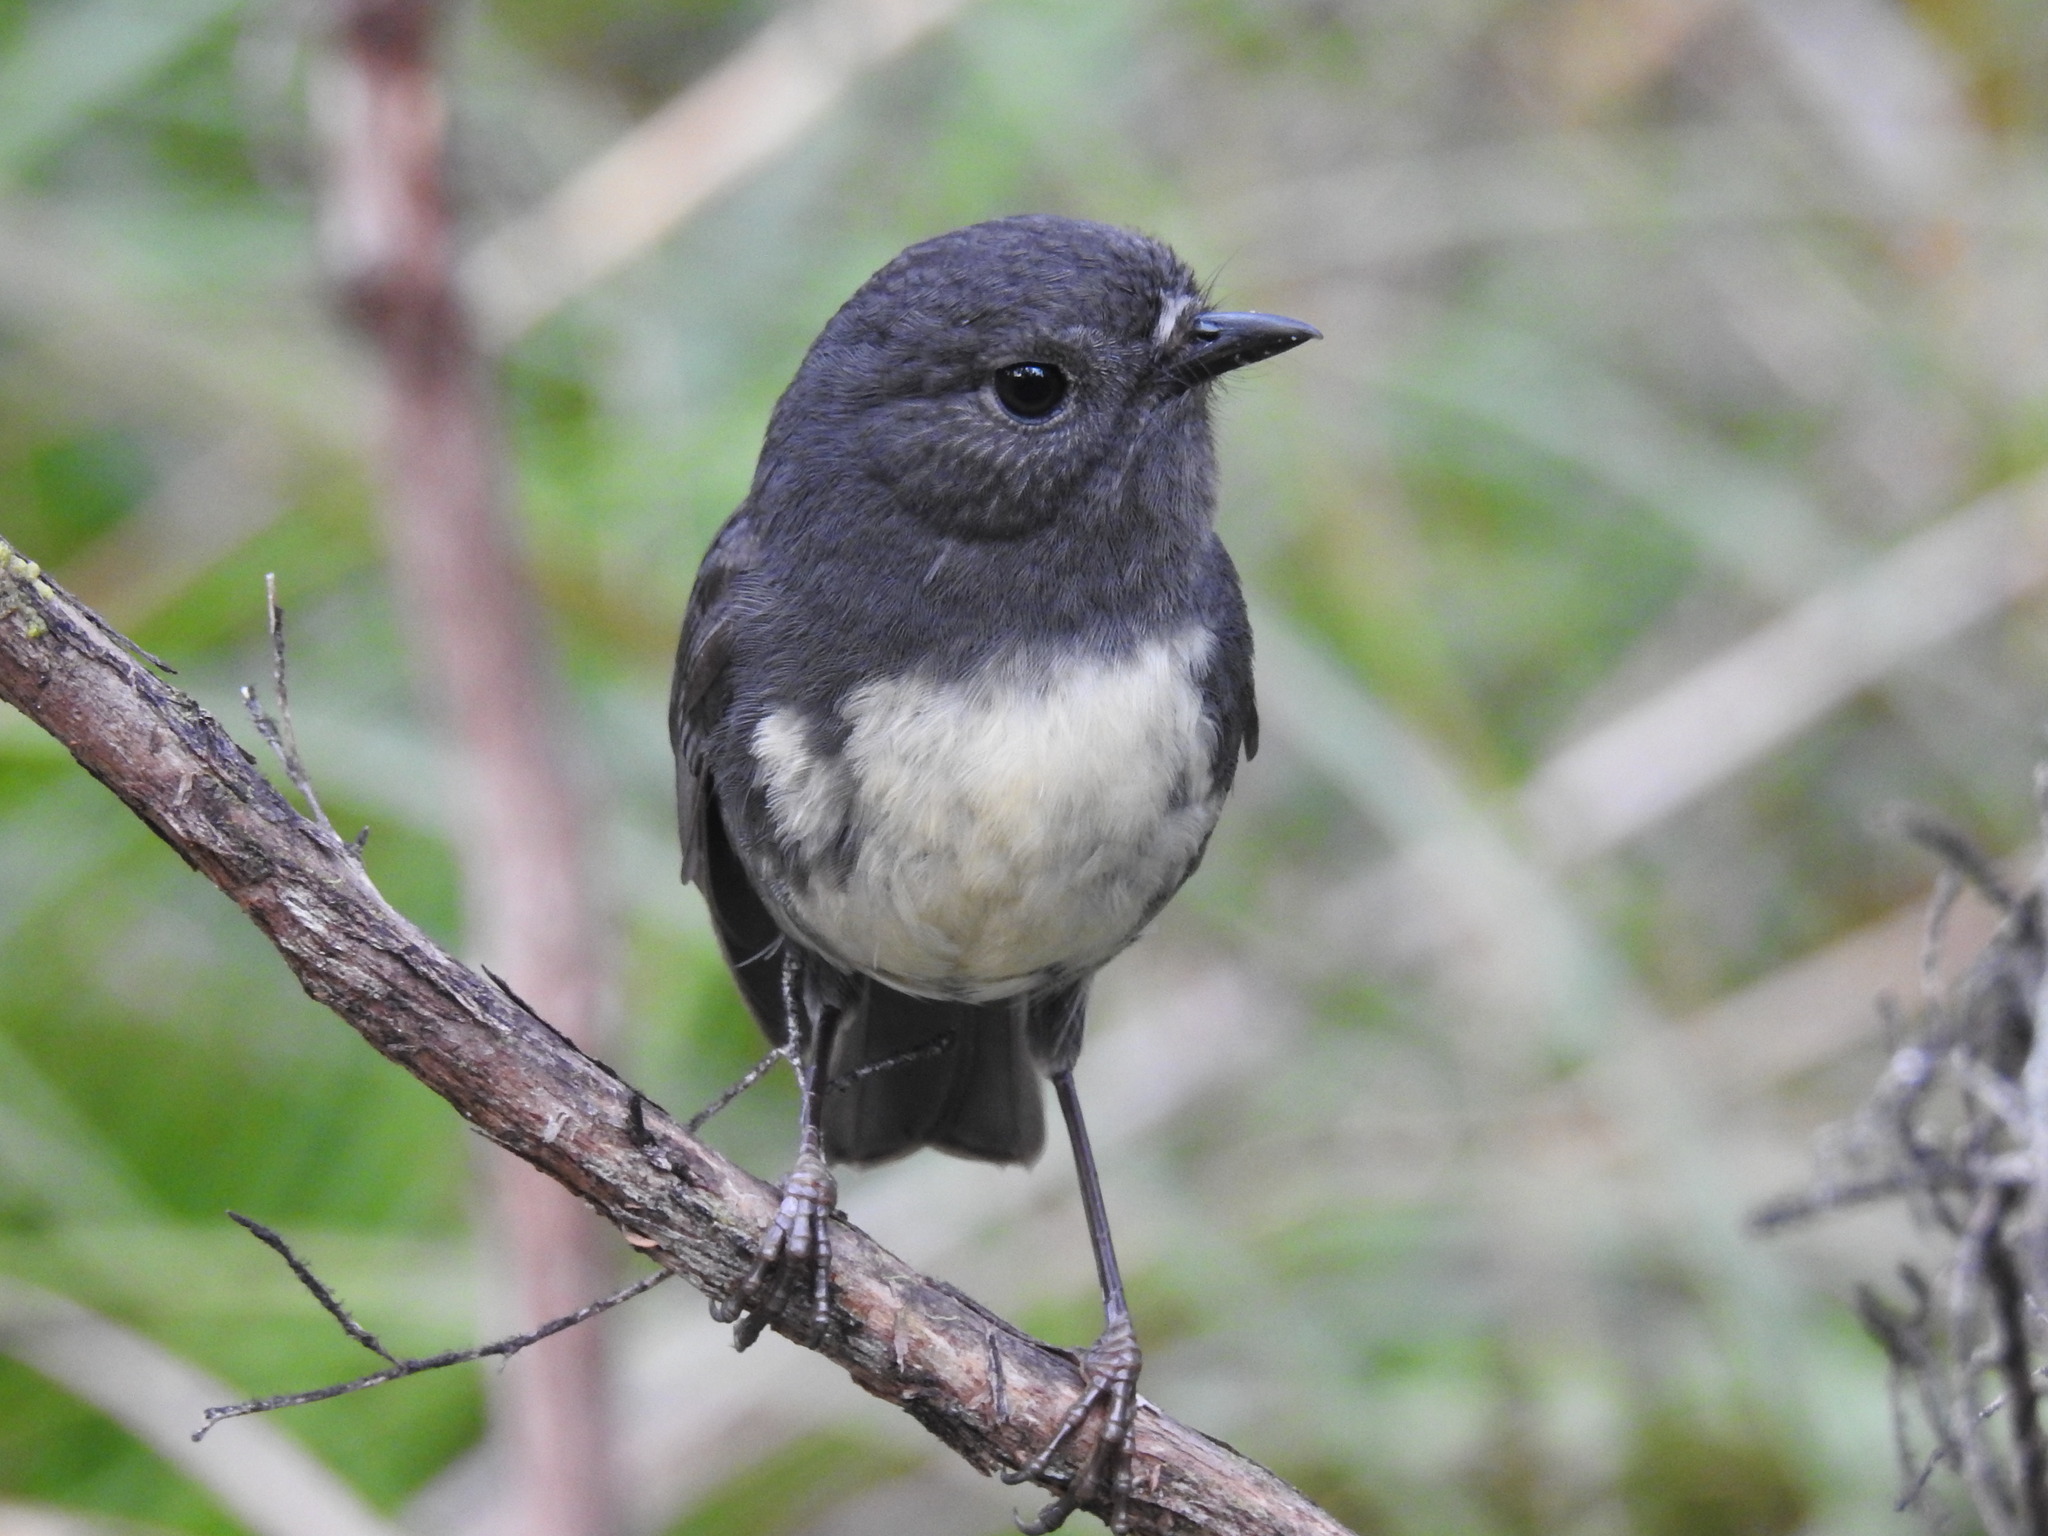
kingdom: Animalia
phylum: Chordata
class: Aves
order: Passeriformes
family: Petroicidae
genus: Petroica
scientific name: Petroica australis
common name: New zealand robin
